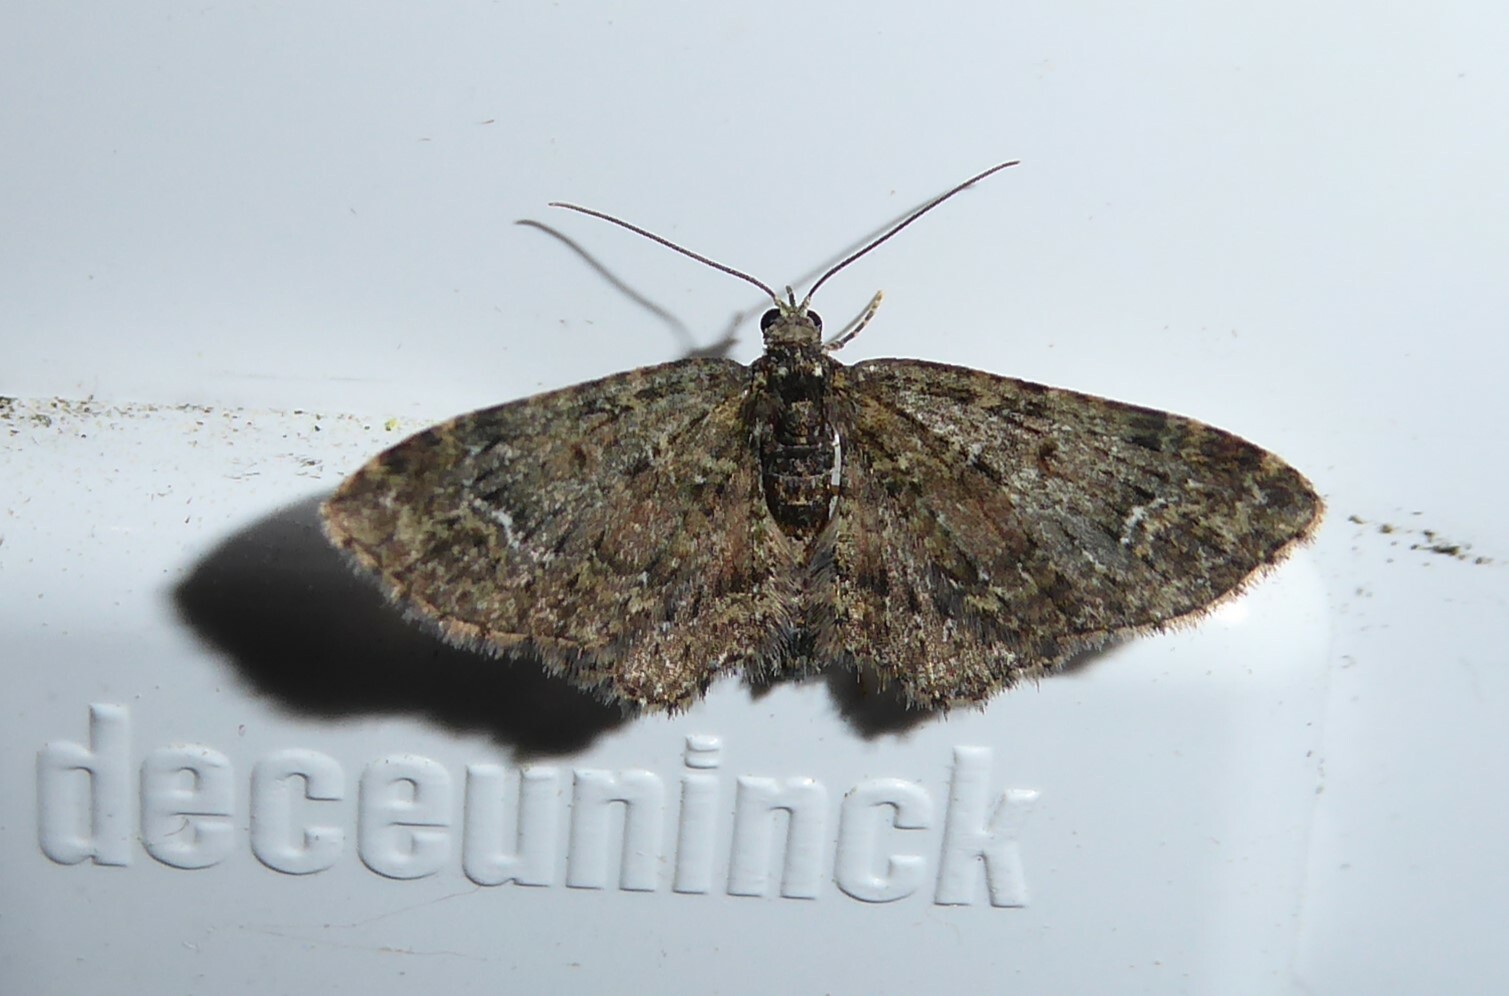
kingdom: Animalia
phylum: Arthropoda
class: Insecta
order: Lepidoptera
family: Geometridae
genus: Pasiphilodes
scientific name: Pasiphilodes testulata
